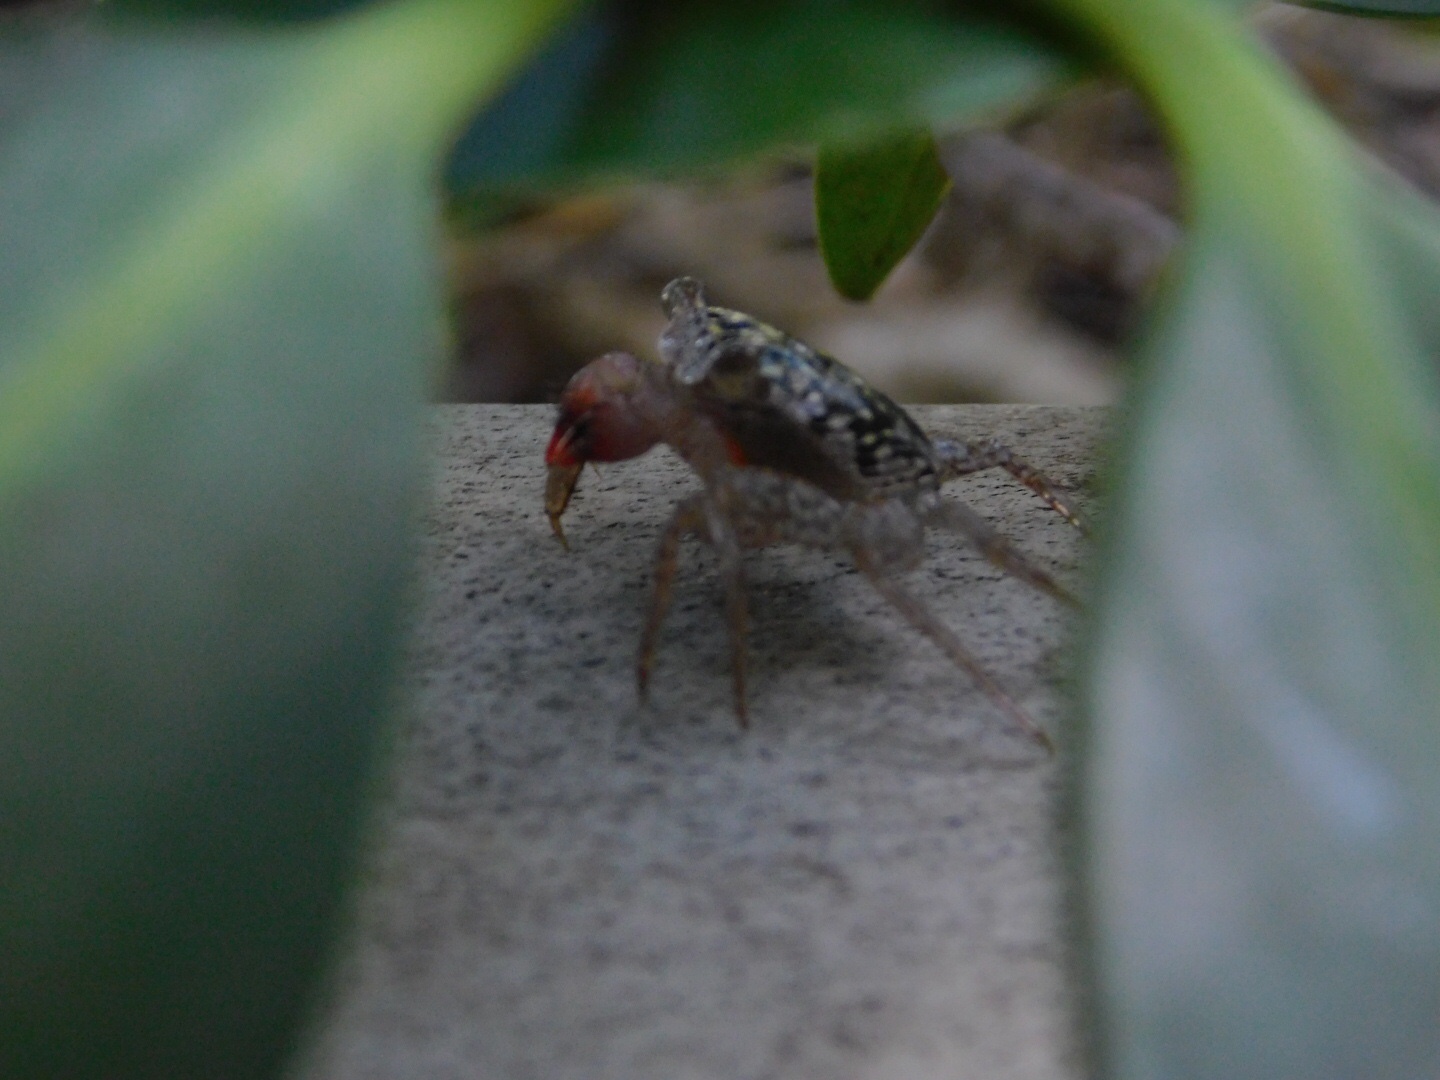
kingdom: Animalia
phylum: Arthropoda
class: Malacostraca
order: Decapoda
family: Sesarmidae
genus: Aratus
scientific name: Aratus pisonii
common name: Mangrove crab
